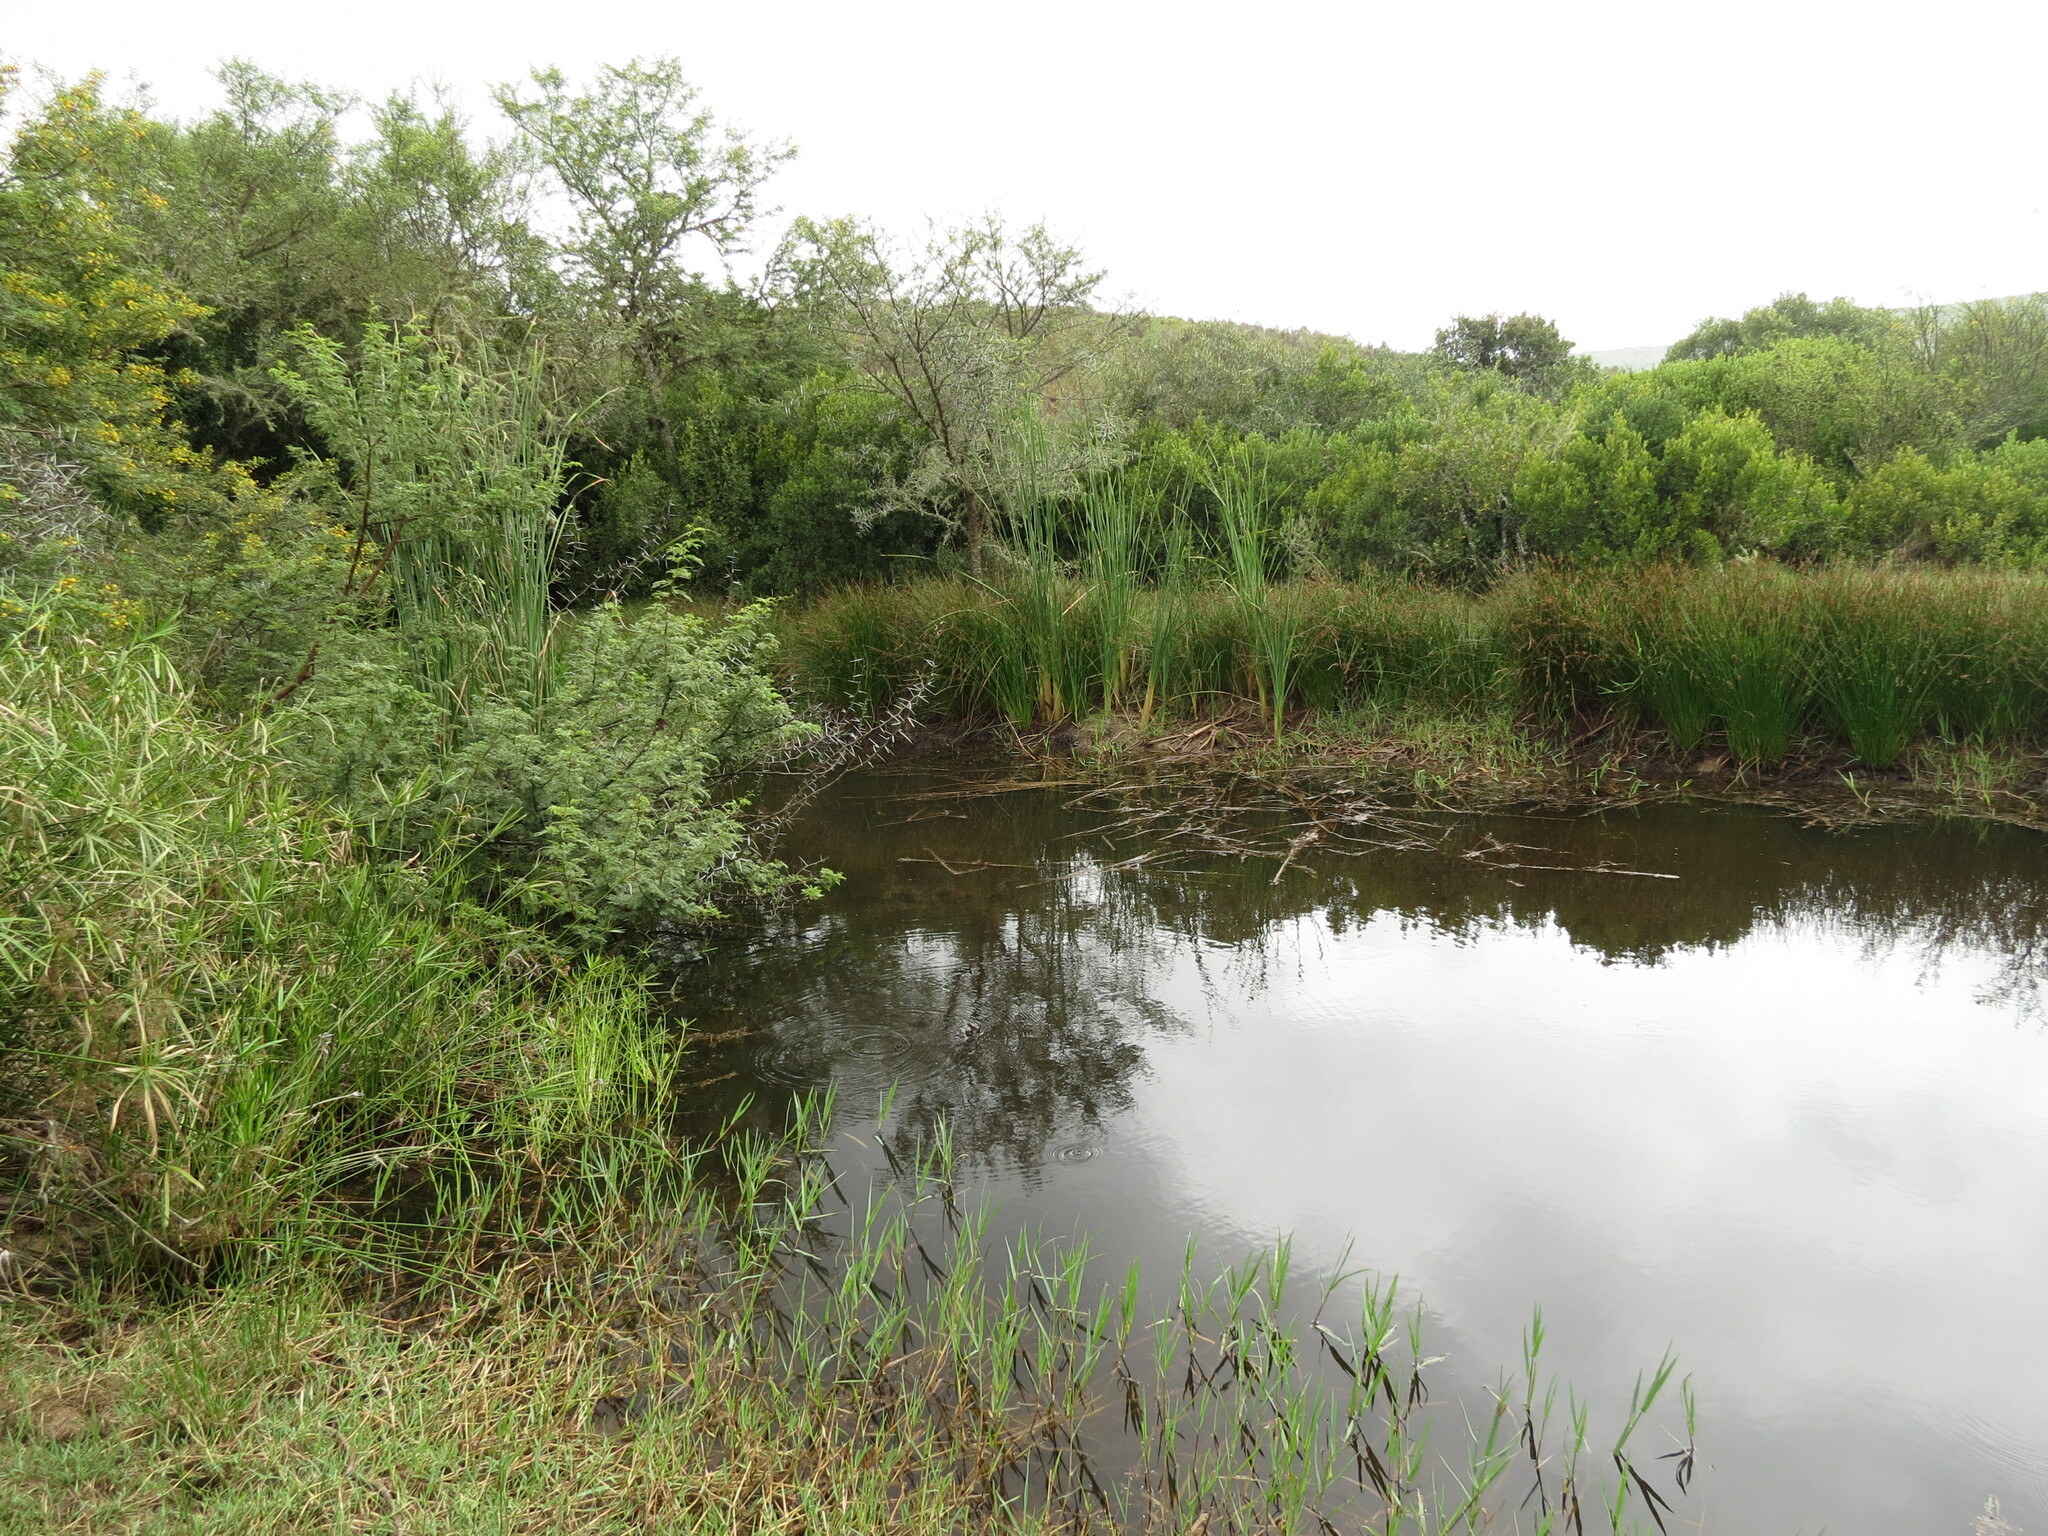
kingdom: Plantae
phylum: Tracheophyta
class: Liliopsida
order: Poales
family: Cyperaceae
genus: Cyperus
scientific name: Cyperus textilis
